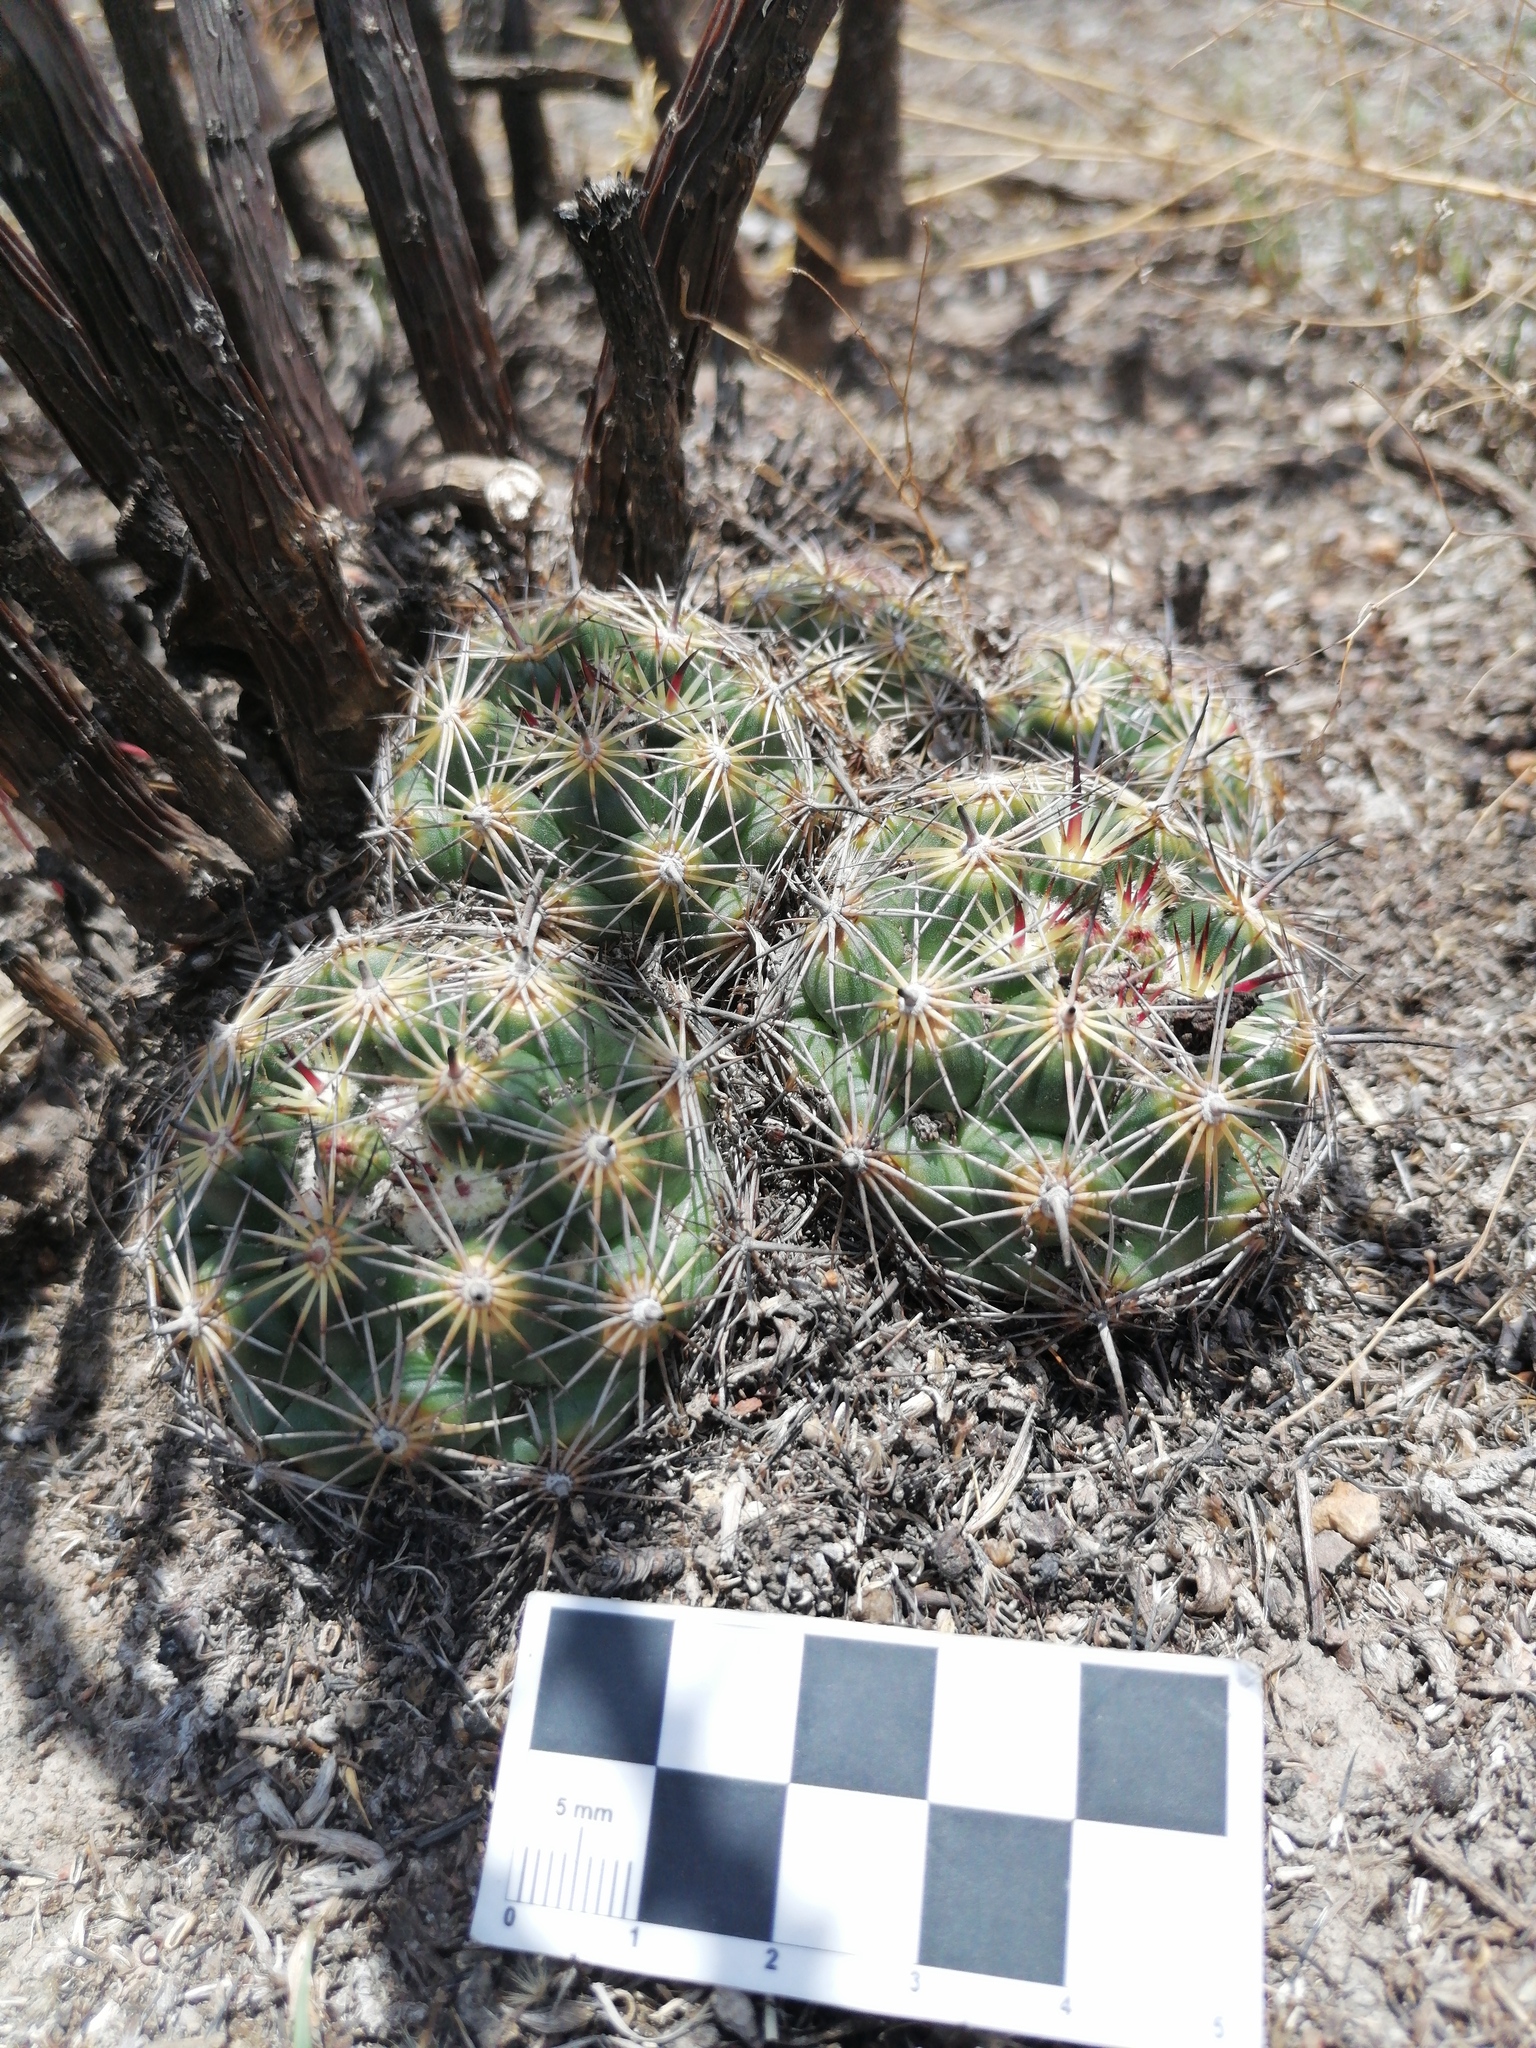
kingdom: Plantae
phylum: Tracheophyta
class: Magnoliopsida
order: Caryophyllales
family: Cactaceae
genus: Coryphantha
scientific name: Coryphantha cornifera
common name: Rhinoceros cactus
